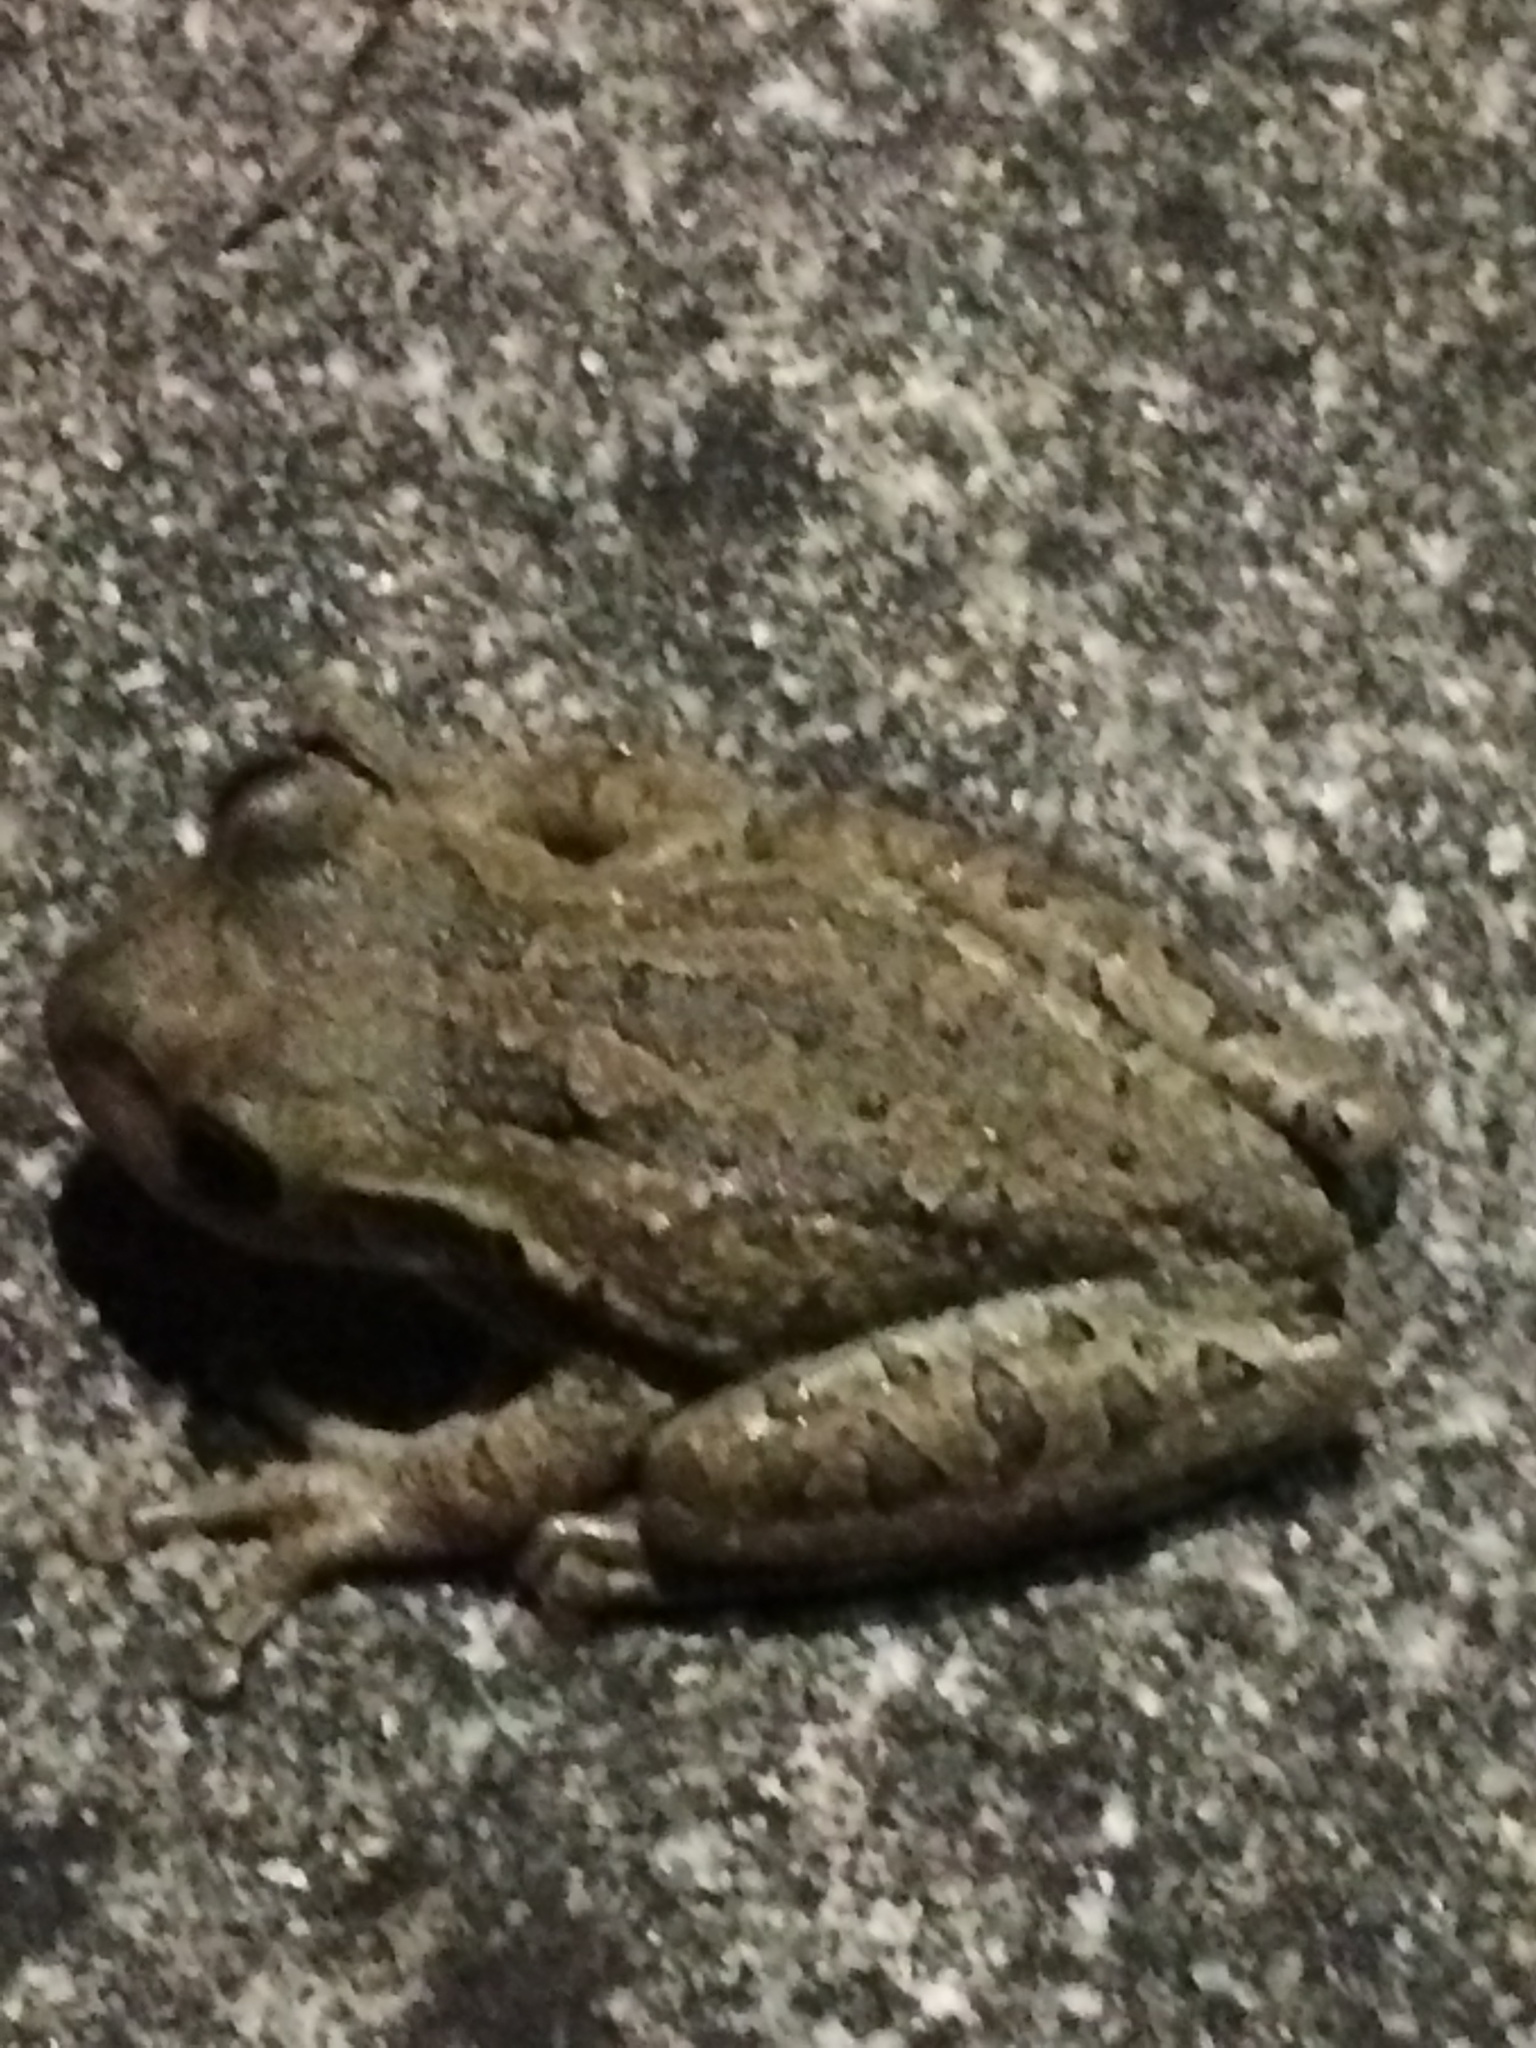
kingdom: Animalia
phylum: Chordata
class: Amphibia
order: Anura
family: Hylidae
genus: Osteopilus
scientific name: Osteopilus septentrionalis
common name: Cuban treefrog
